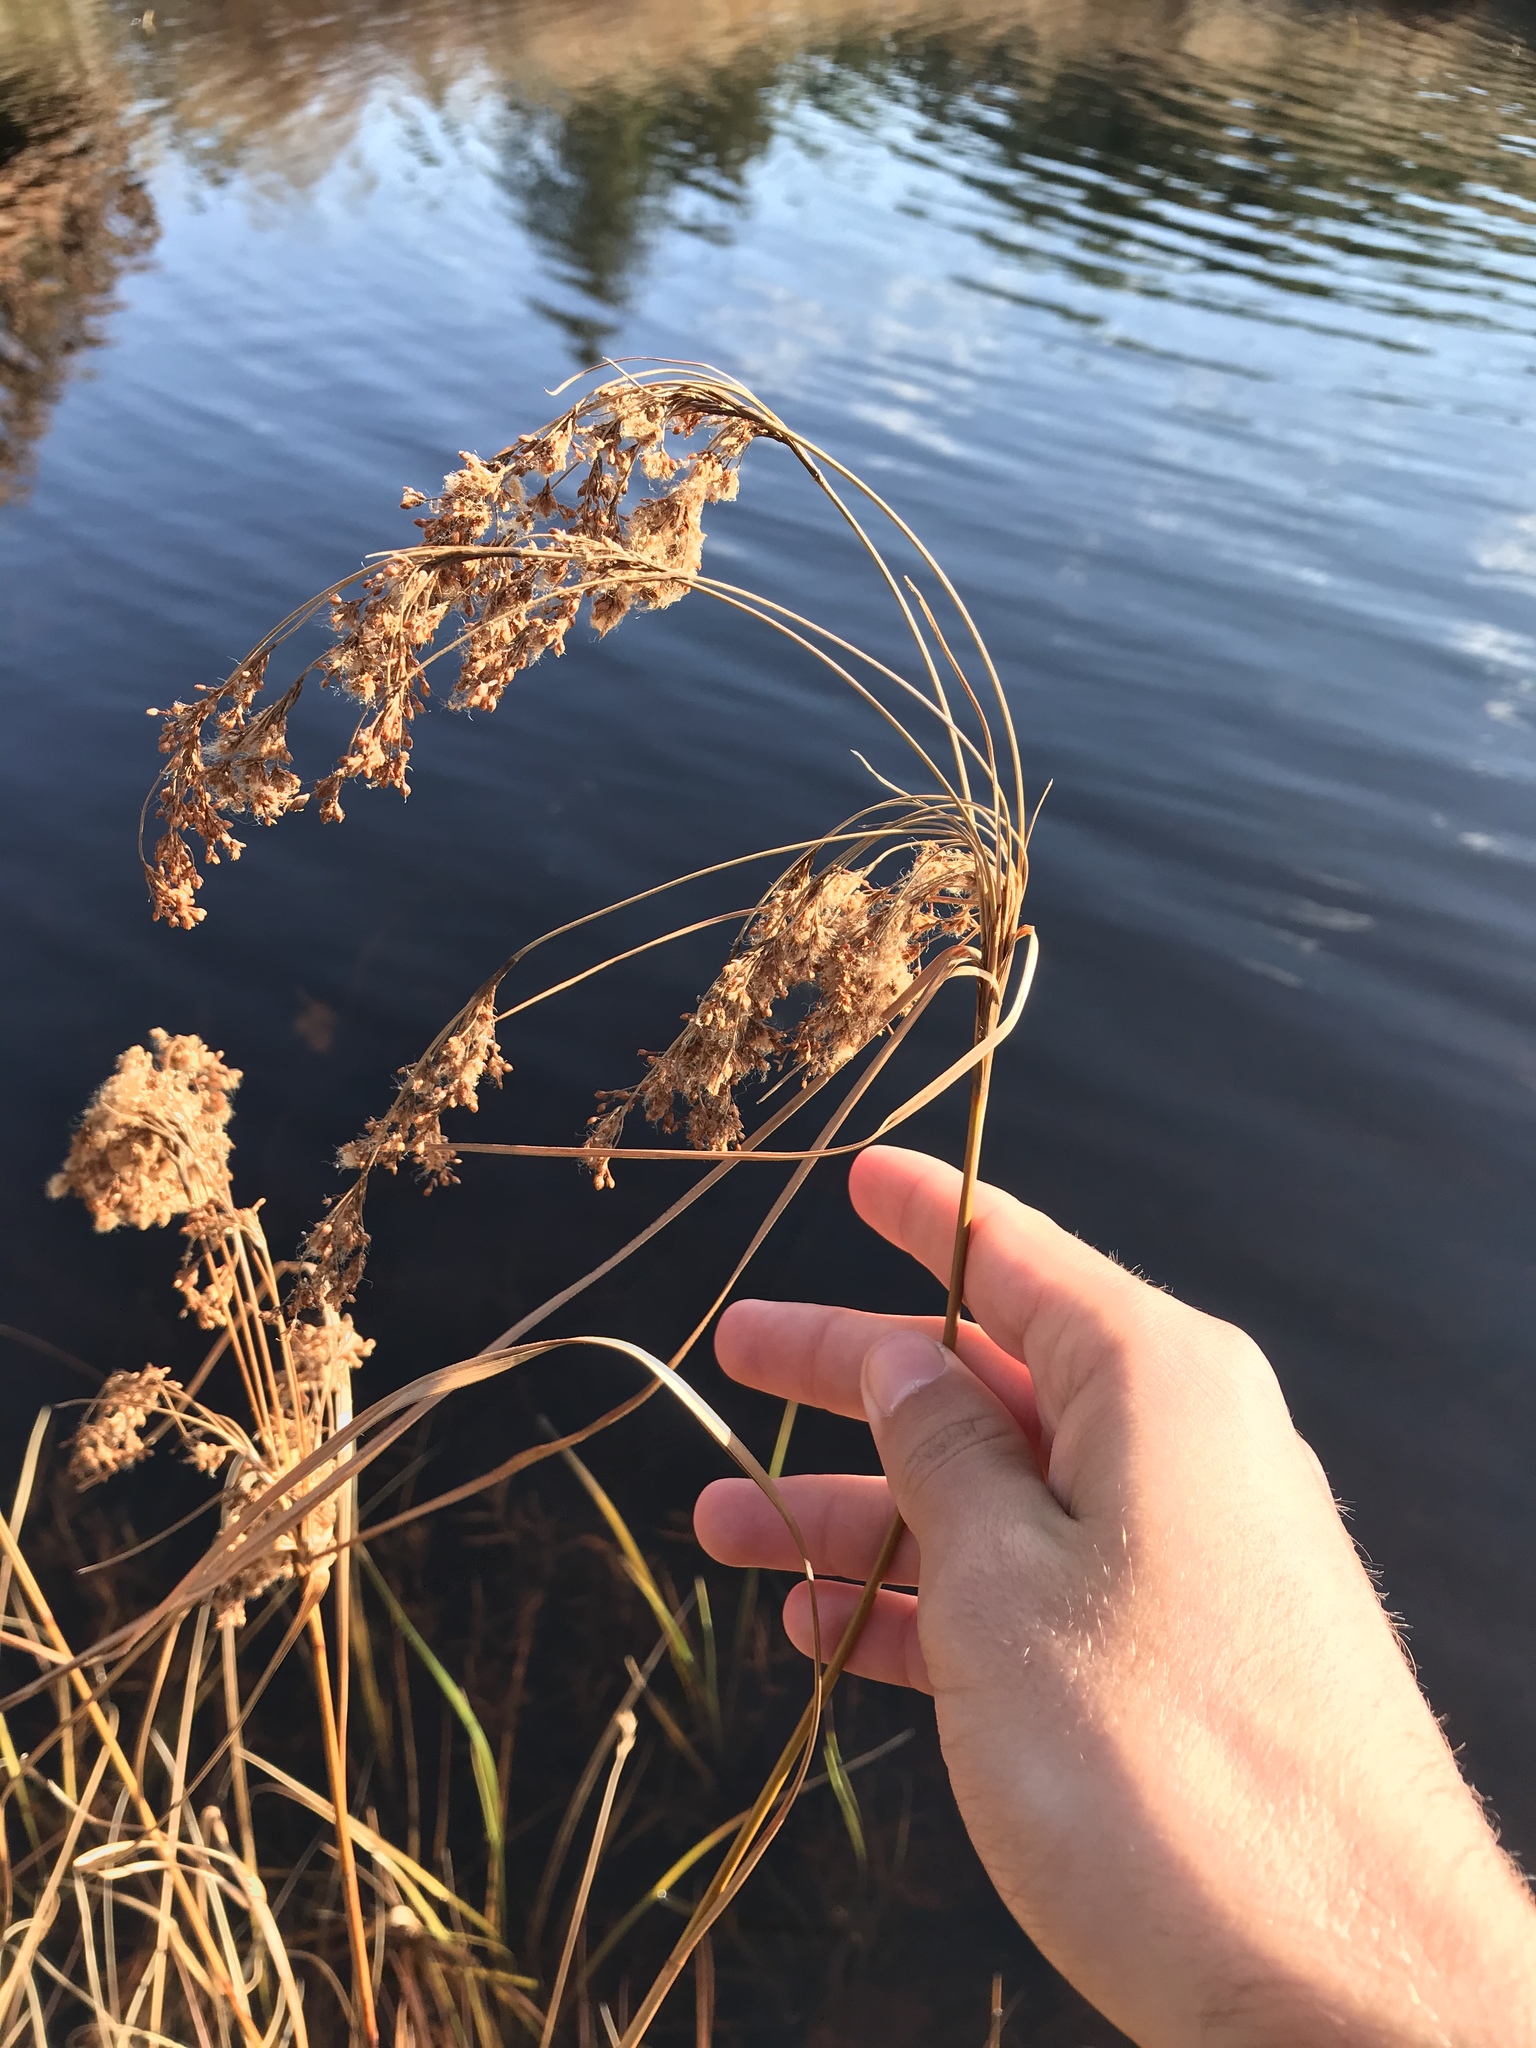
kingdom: Plantae
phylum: Tracheophyta
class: Liliopsida
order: Poales
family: Cyperaceae
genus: Scirpus
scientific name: Scirpus cyperinus
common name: Black-sheathed bulrush
